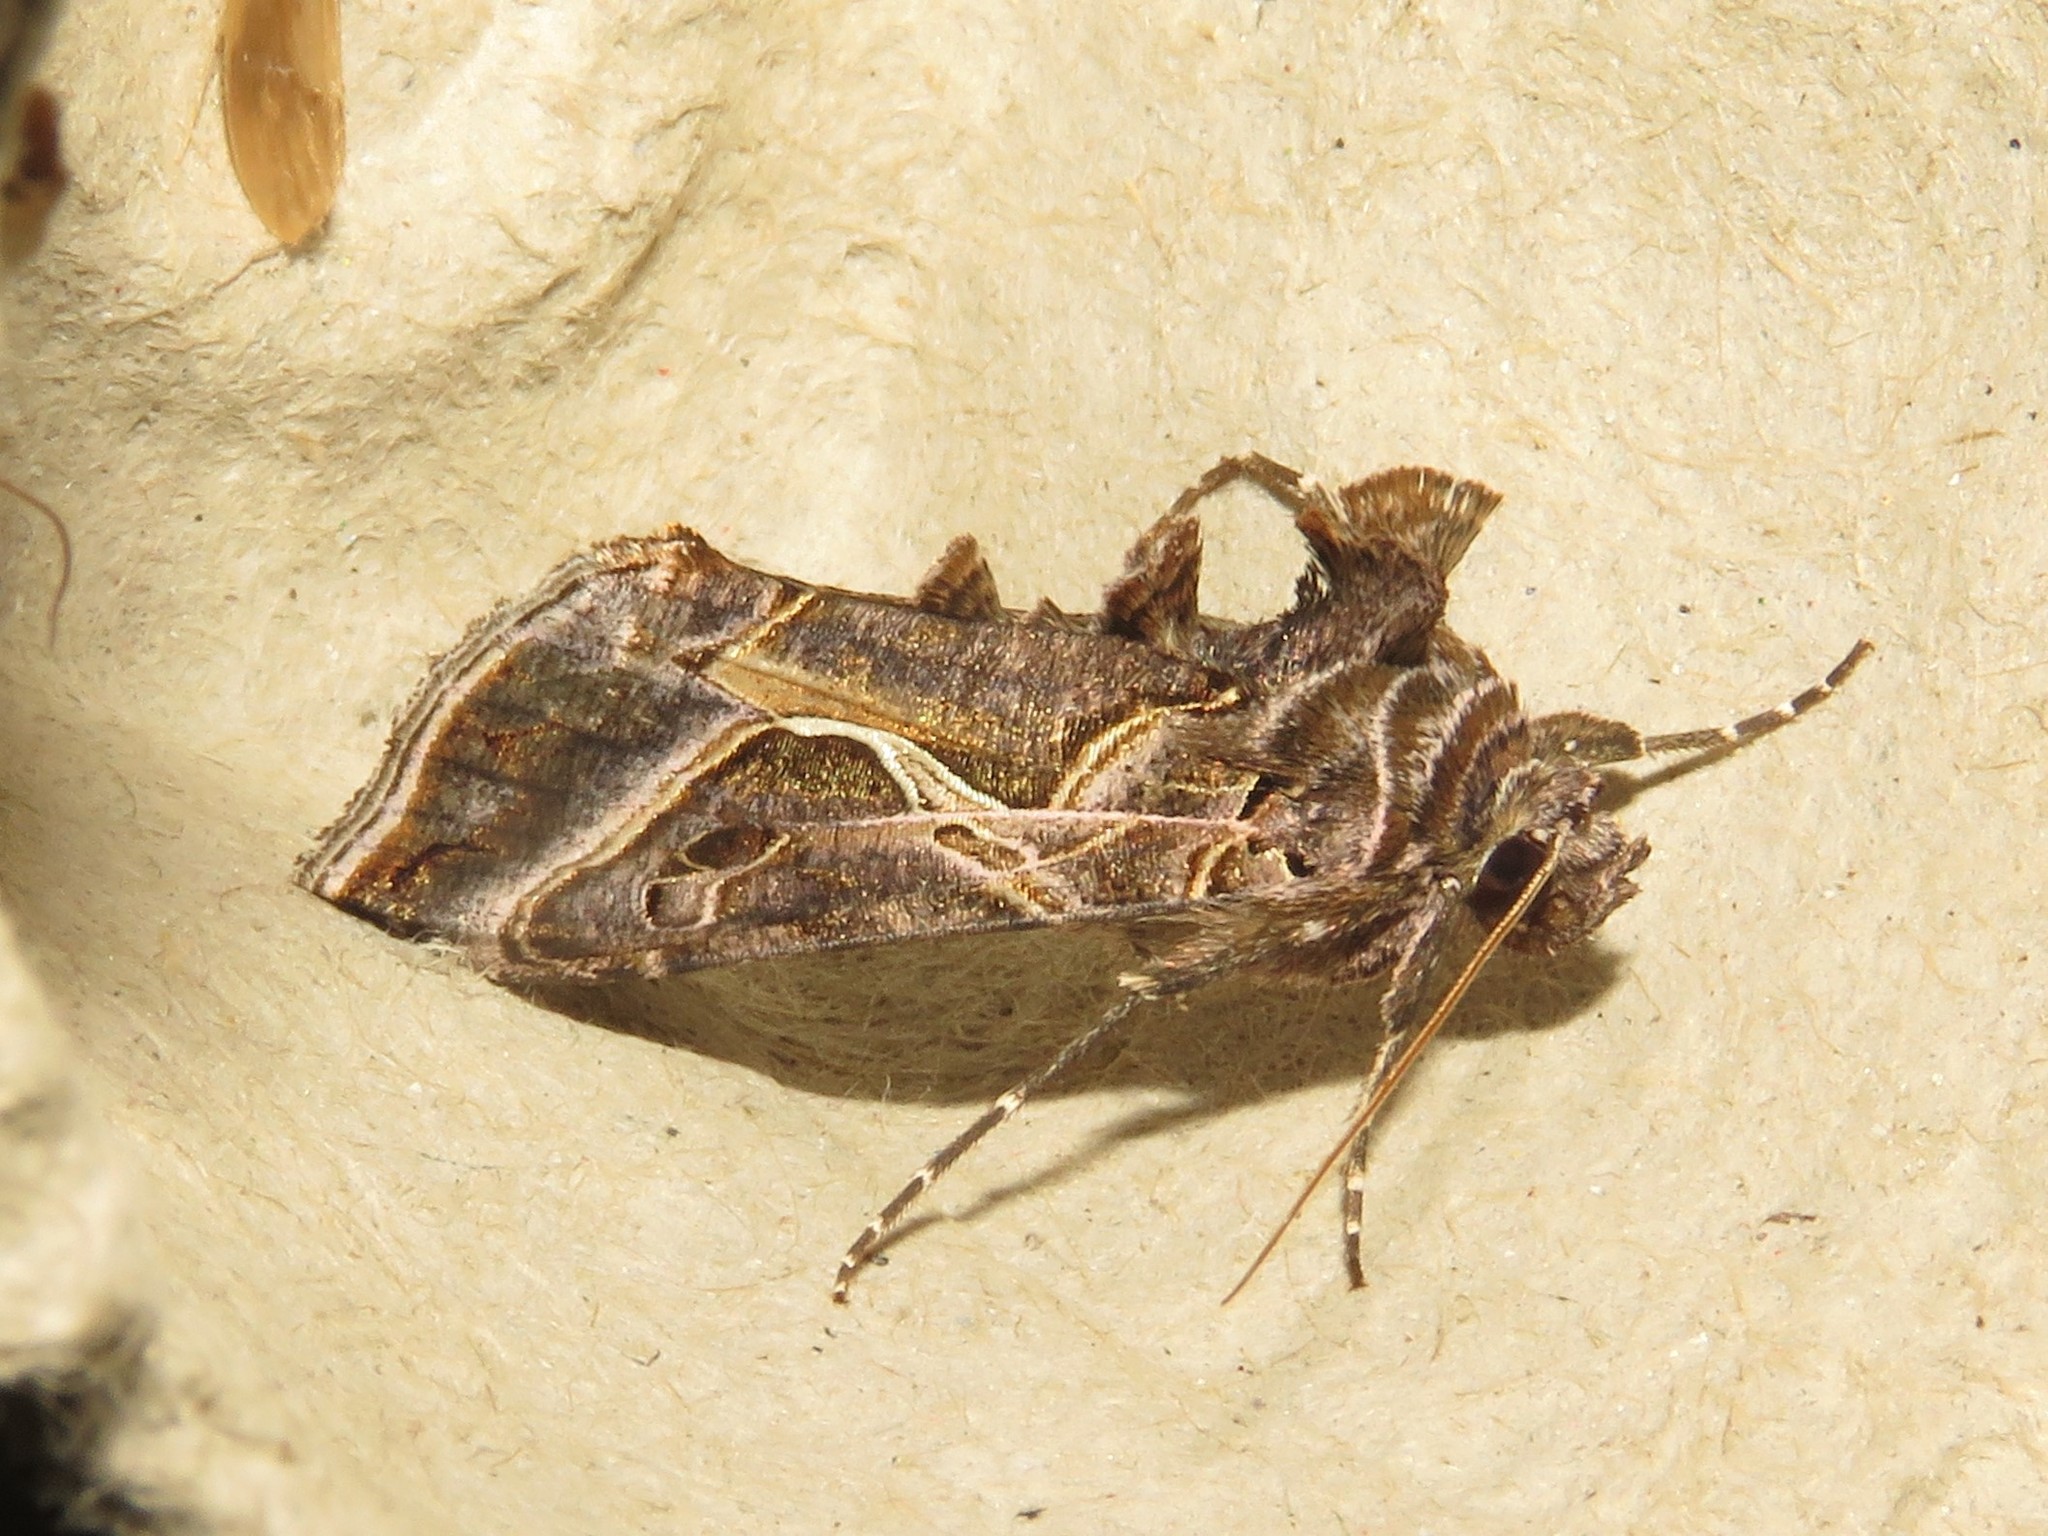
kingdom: Animalia
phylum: Arthropoda
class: Insecta
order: Lepidoptera
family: Noctuidae
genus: Autographa
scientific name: Autographa flagellum
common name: Silver whip moth
